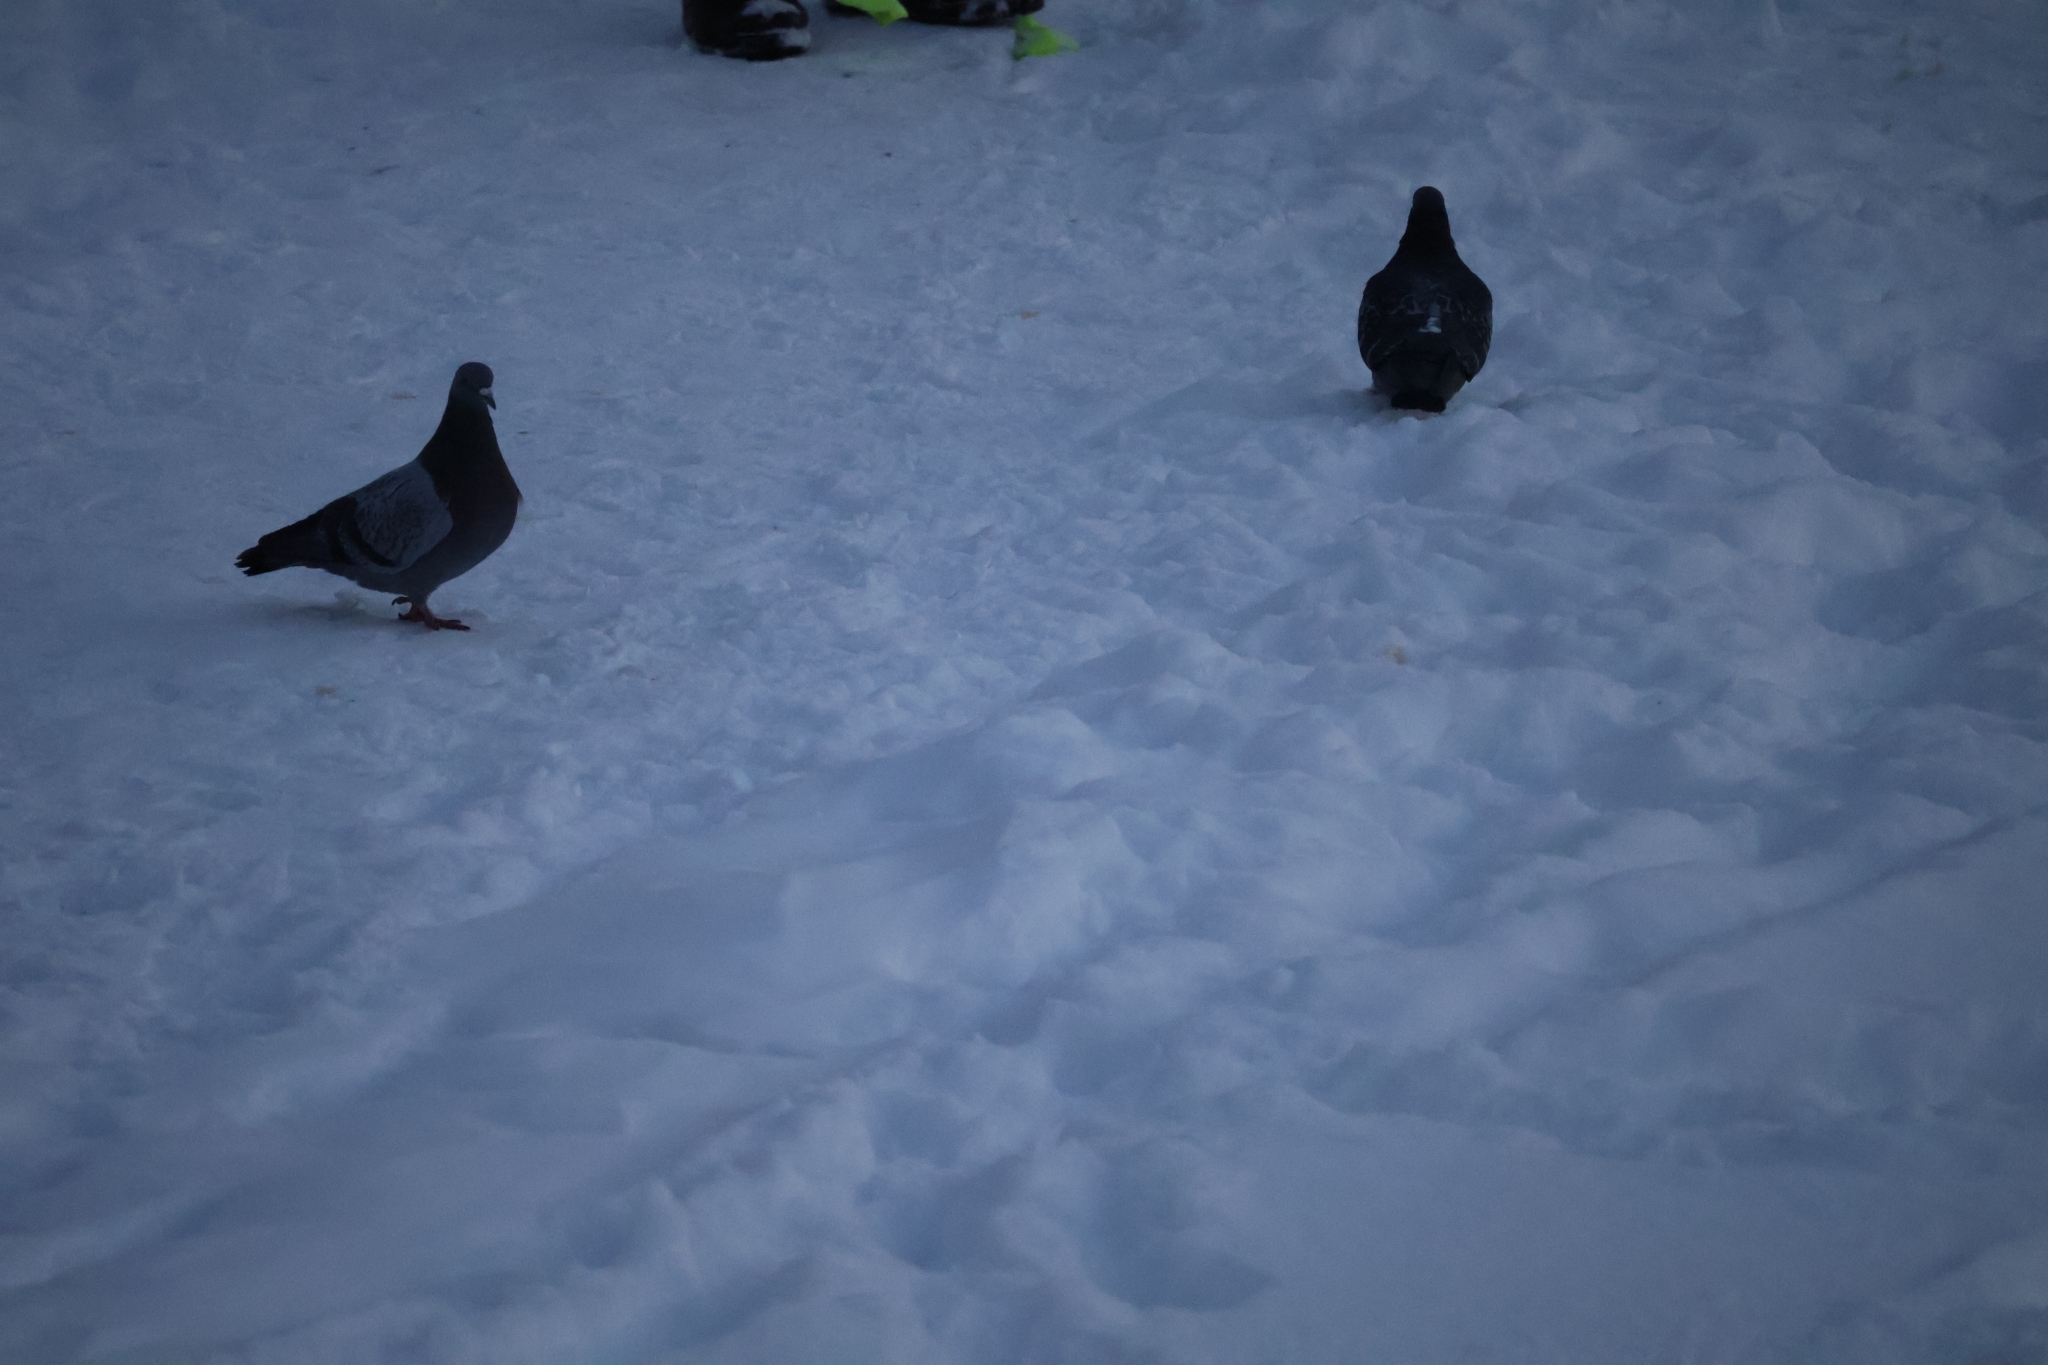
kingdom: Animalia
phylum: Chordata
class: Aves
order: Columbiformes
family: Columbidae
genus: Columba
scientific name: Columba livia
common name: Rock pigeon
